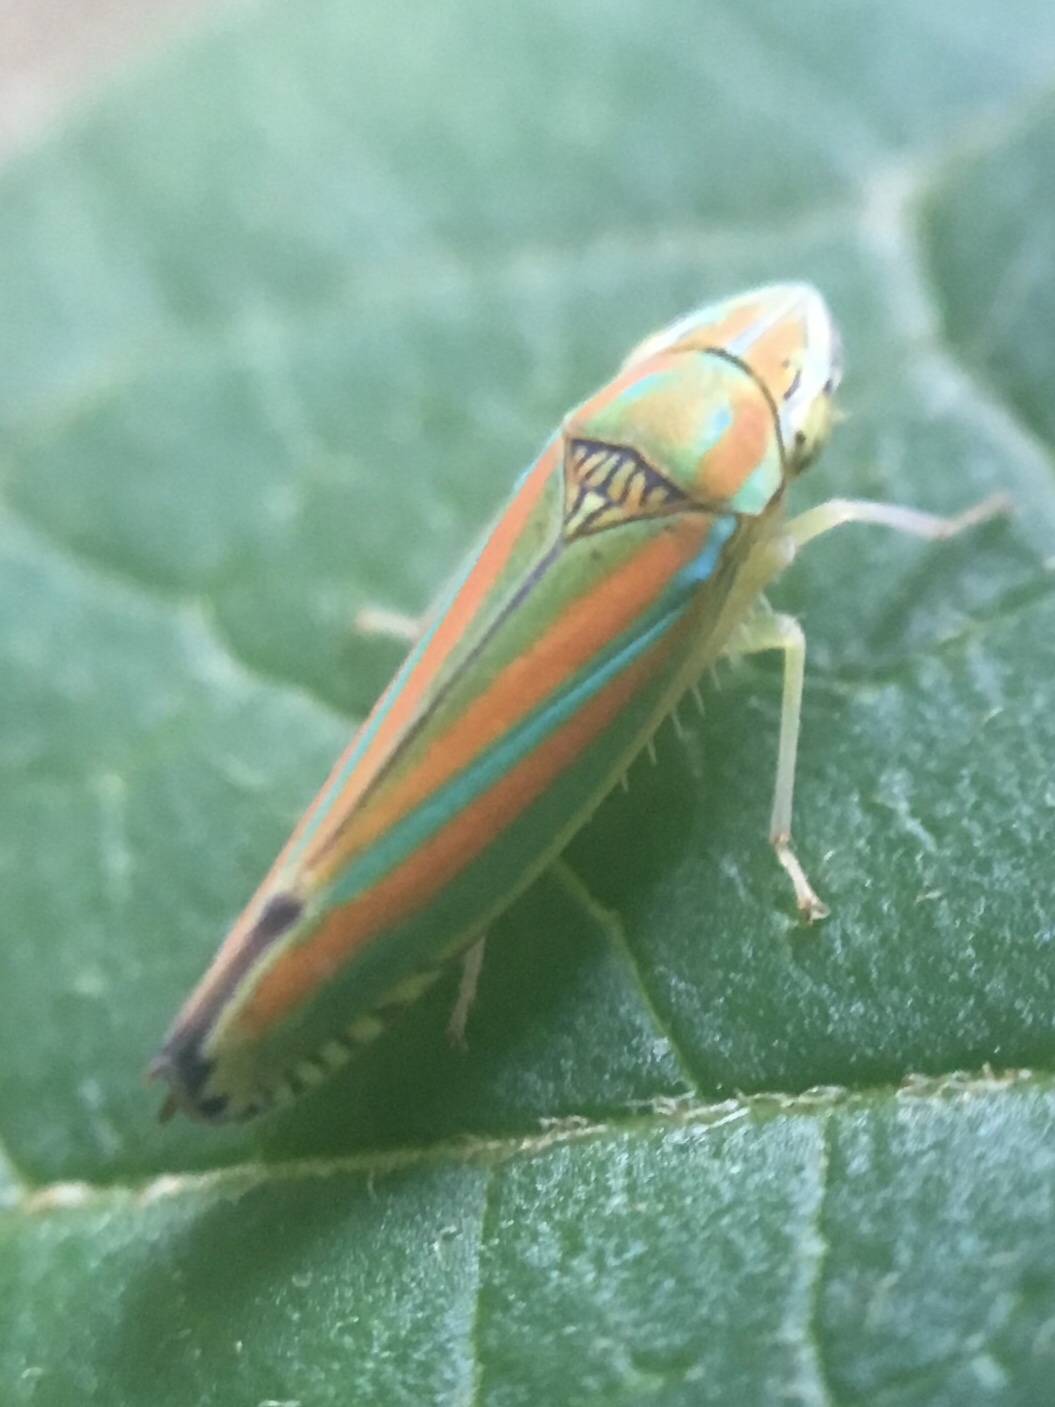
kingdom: Animalia
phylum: Arthropoda
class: Insecta
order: Hemiptera
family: Cicadellidae
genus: Graphocephala
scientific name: Graphocephala versuta
